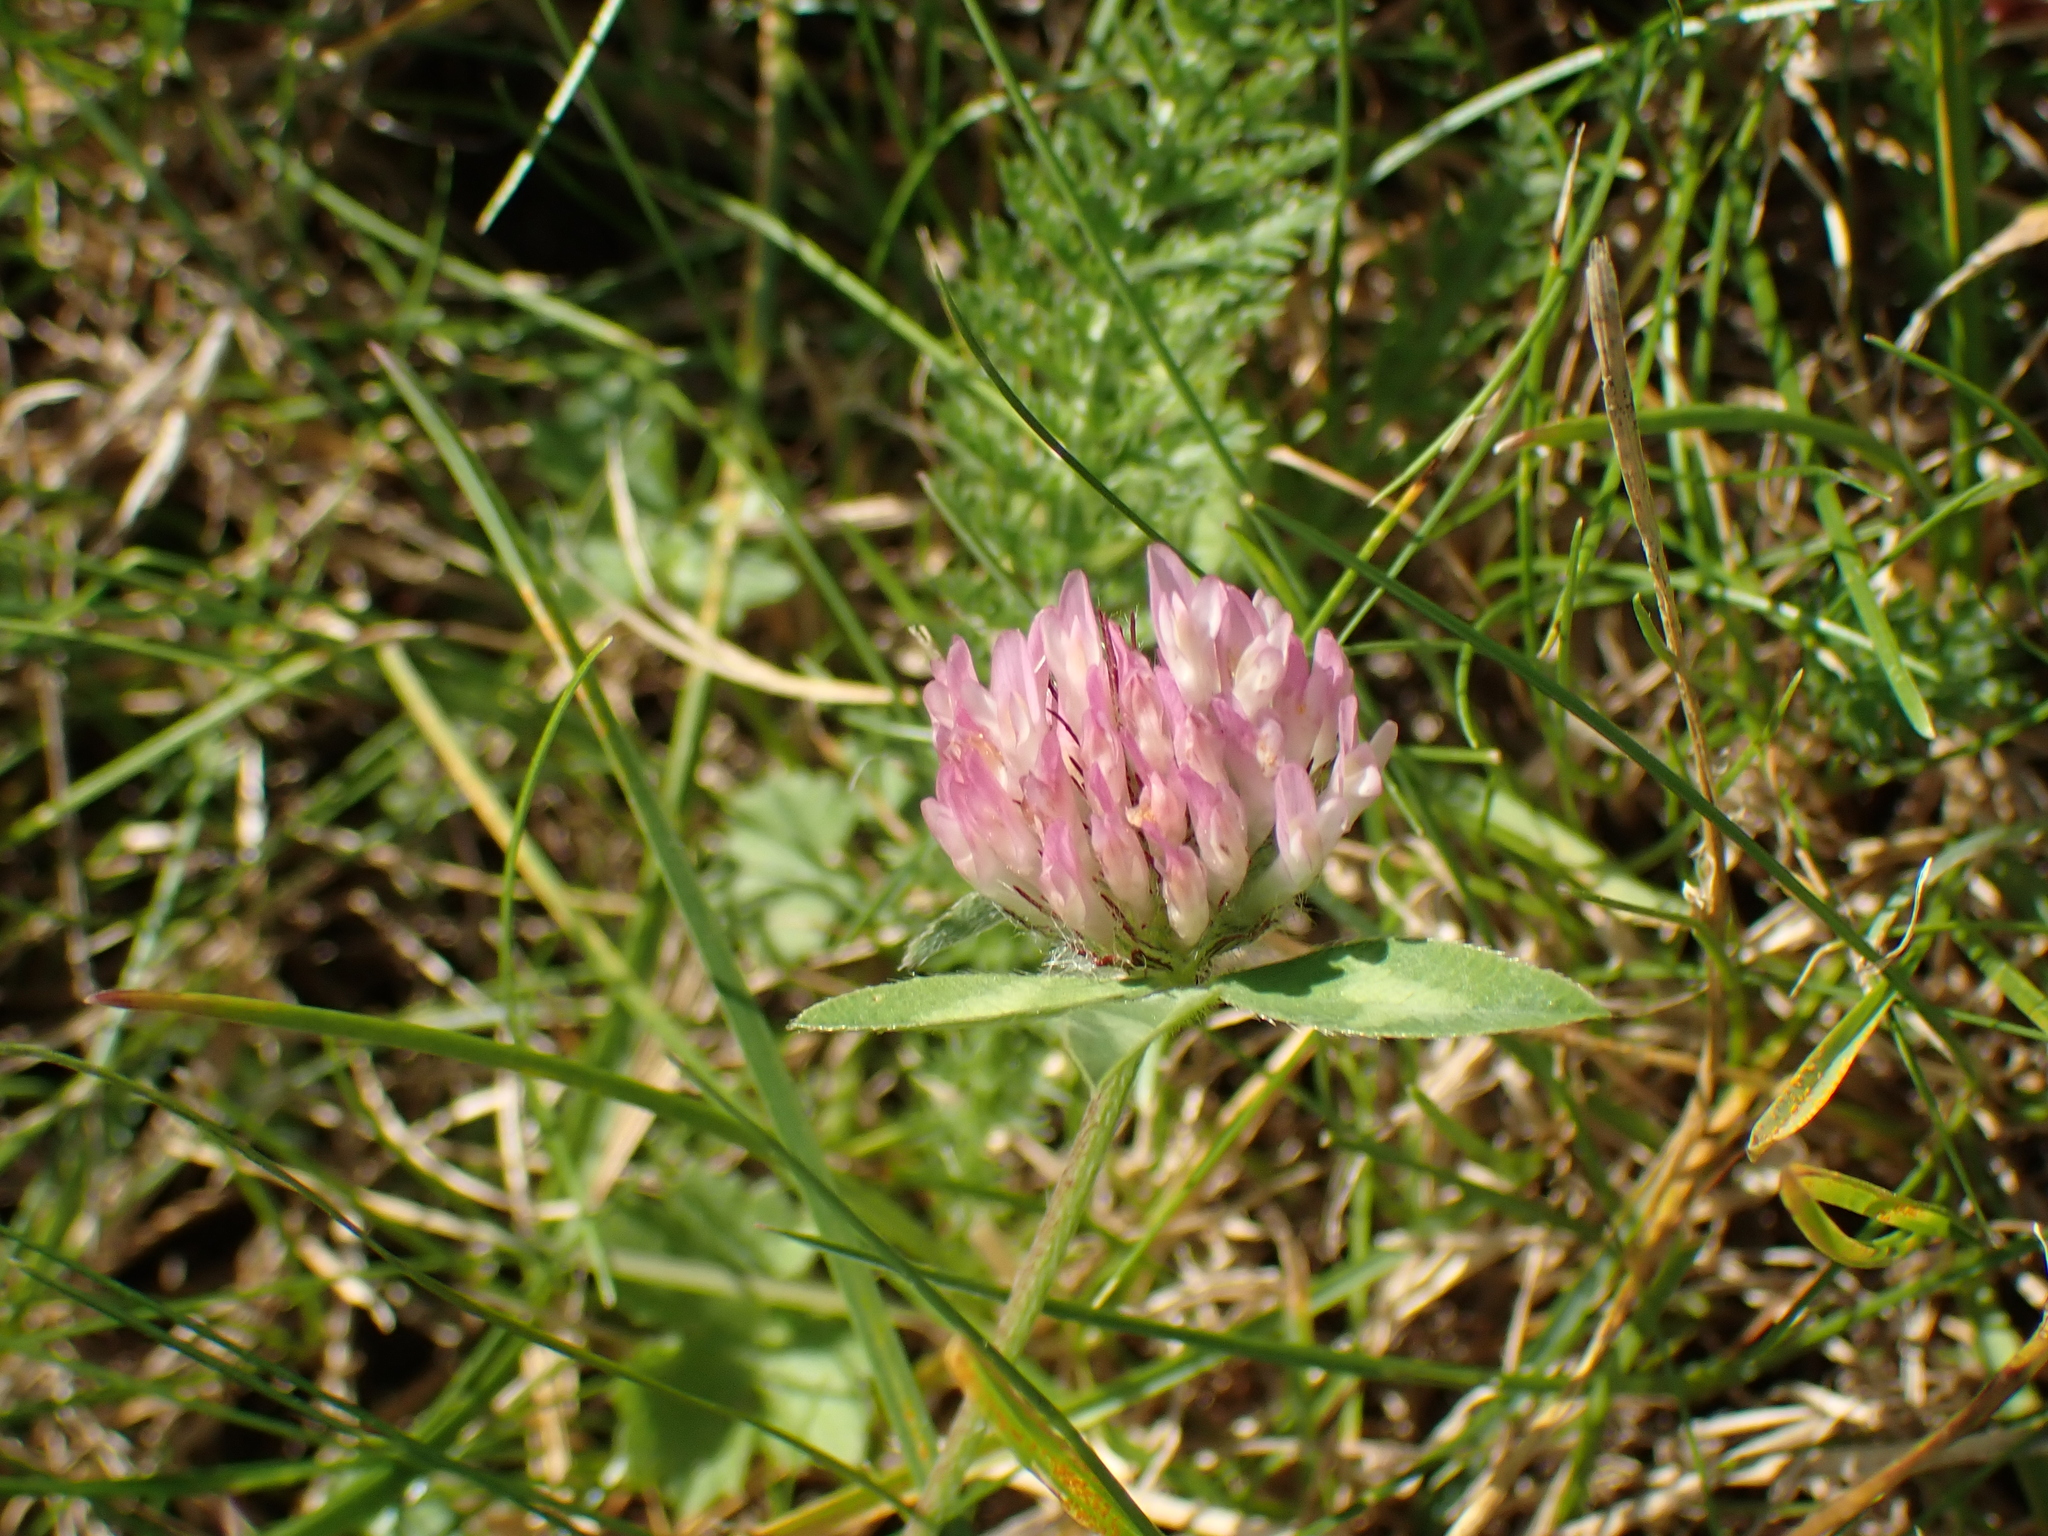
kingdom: Plantae
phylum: Tracheophyta
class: Magnoliopsida
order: Fabales
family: Fabaceae
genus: Trifolium
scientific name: Trifolium pratense
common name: Red clover
